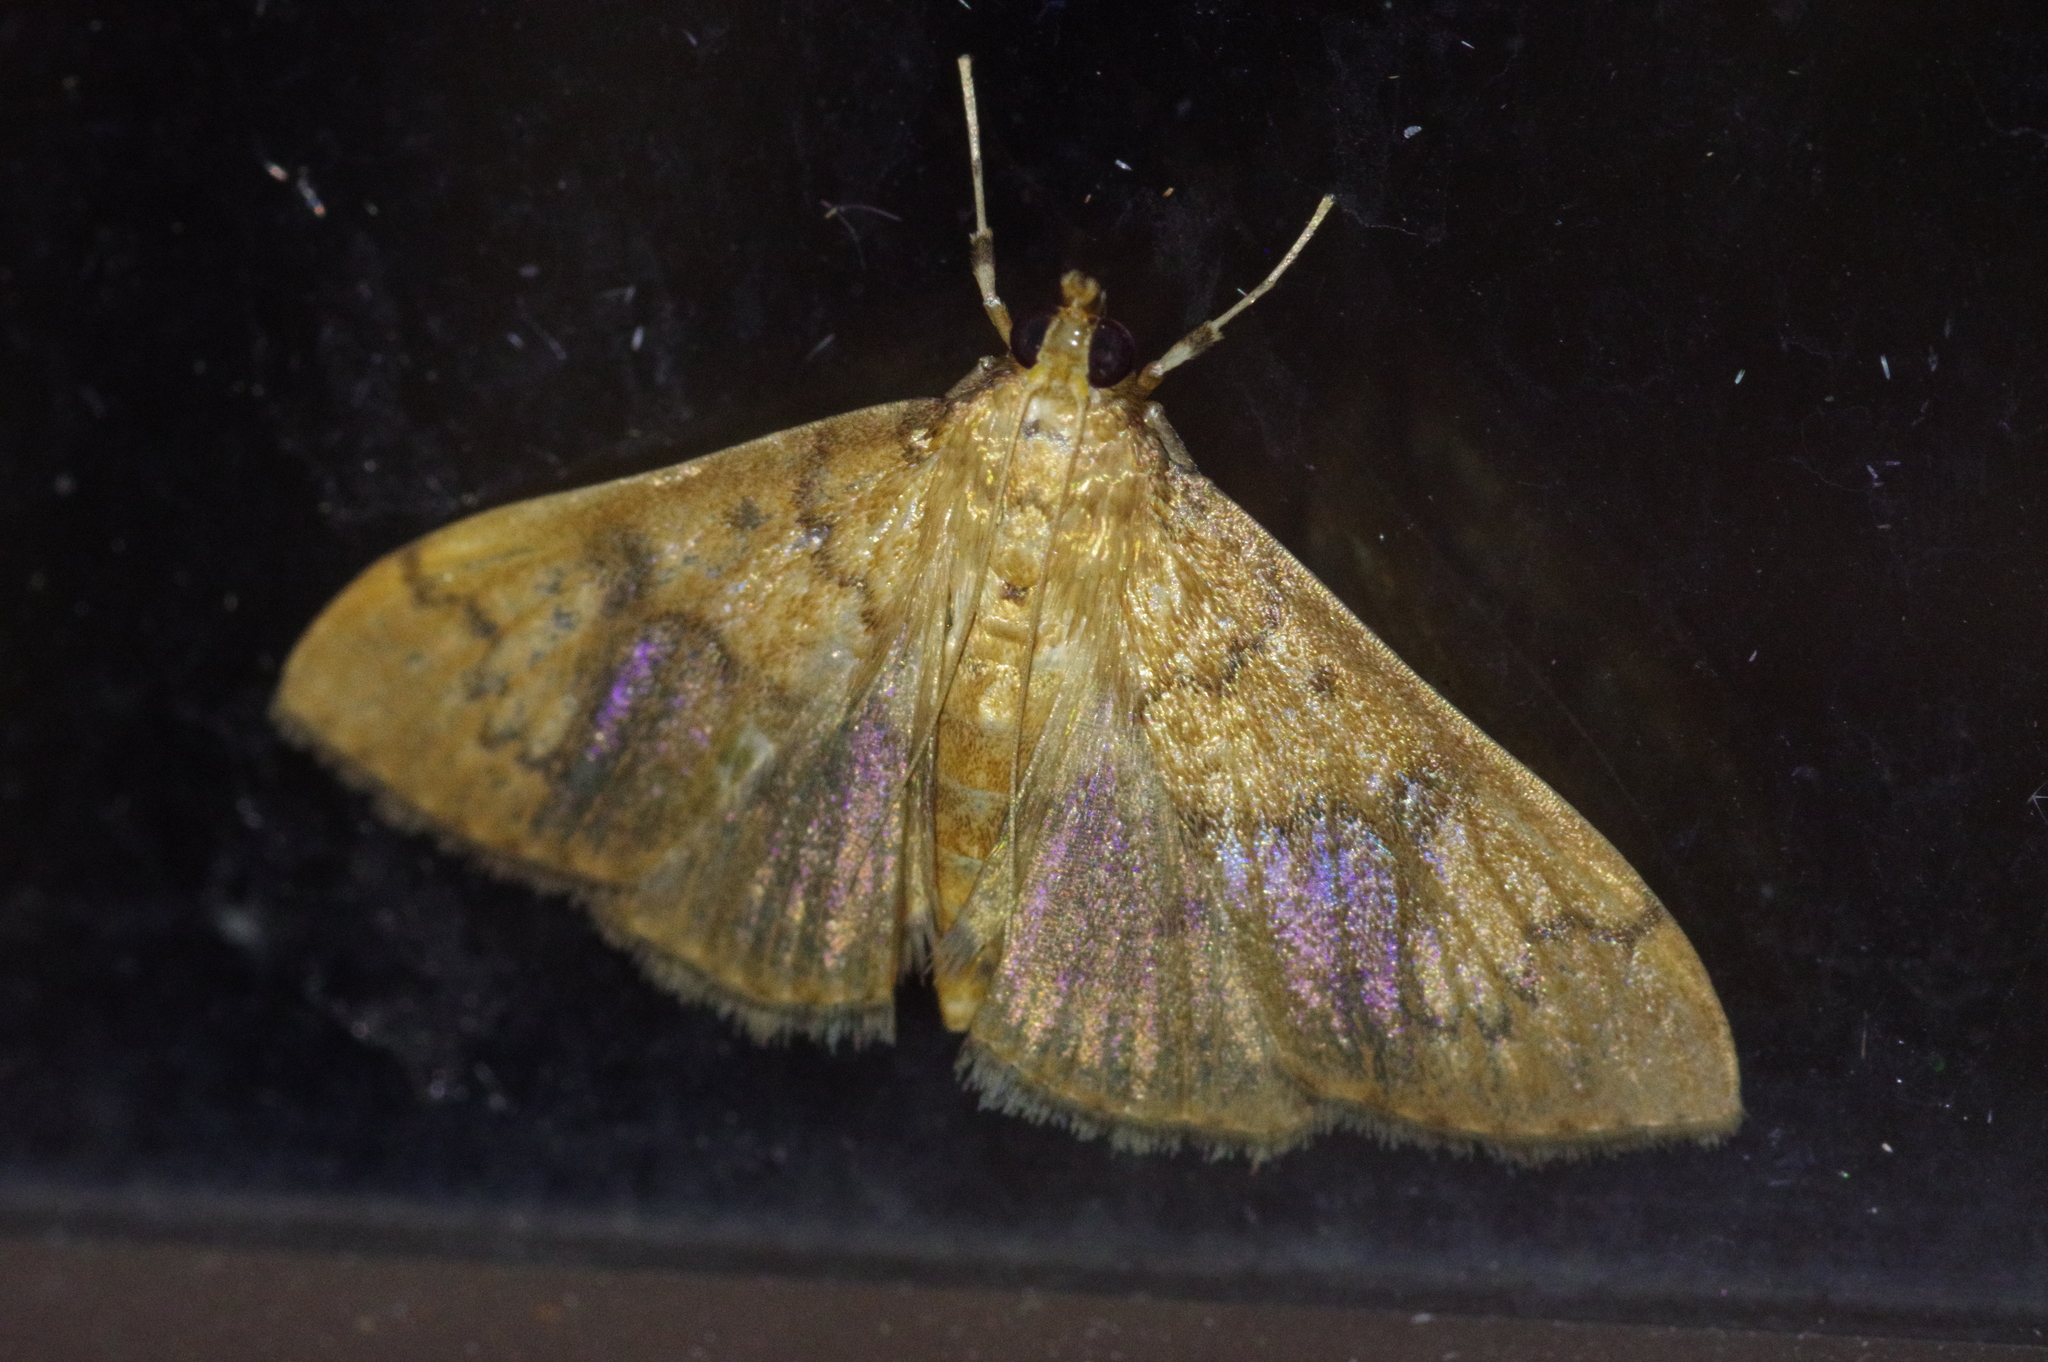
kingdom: Animalia
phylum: Arthropoda
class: Insecta
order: Lepidoptera
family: Crambidae
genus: Patania
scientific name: Patania
